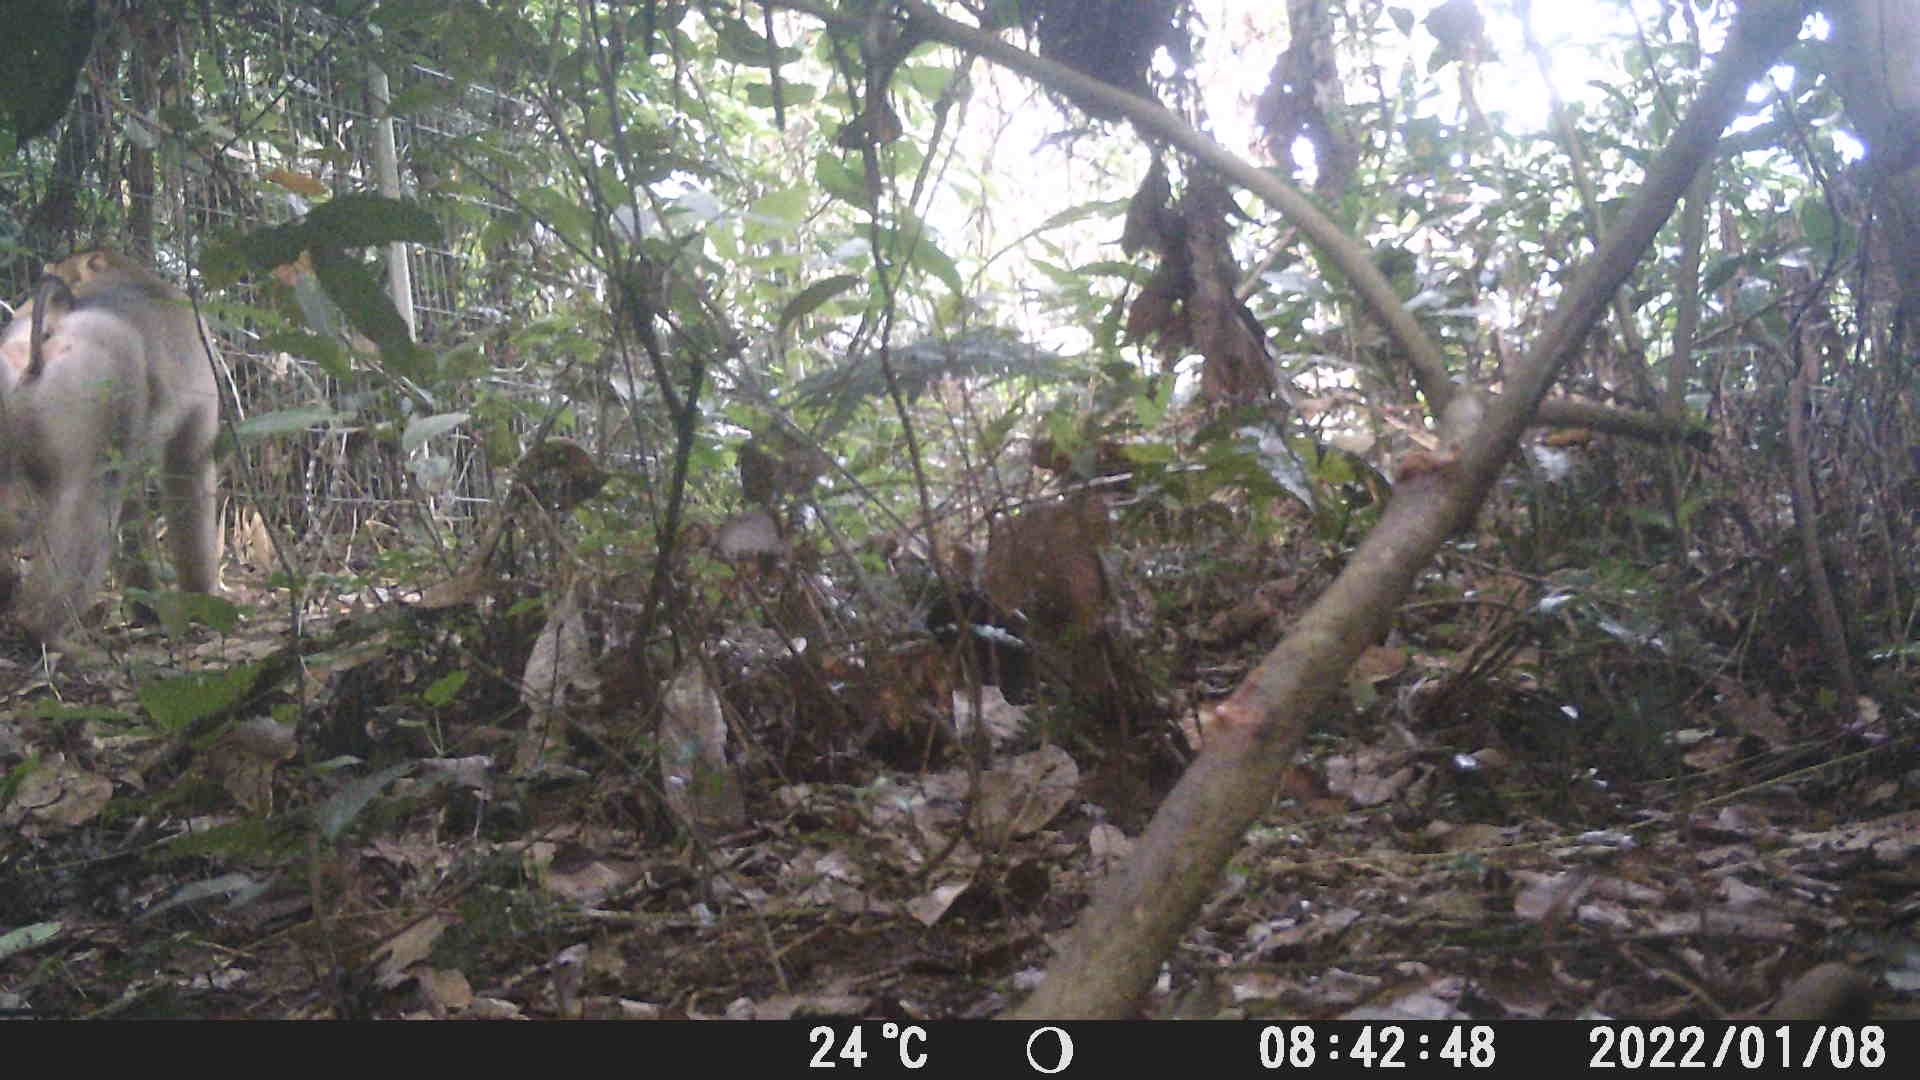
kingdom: Animalia
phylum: Chordata
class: Mammalia
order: Primates
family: Cercopithecidae
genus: Macaca
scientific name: Macaca nemestrina
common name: Southern pig-tailed macaque
